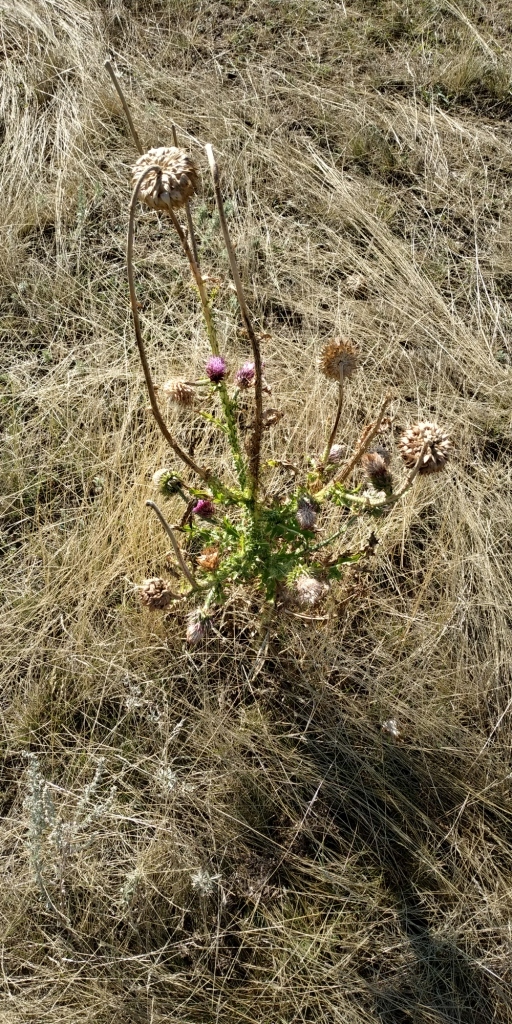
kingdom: Plantae
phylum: Tracheophyta
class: Magnoliopsida
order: Asterales
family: Asteraceae
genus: Carduus
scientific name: Carduus nutans
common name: Musk thistle
